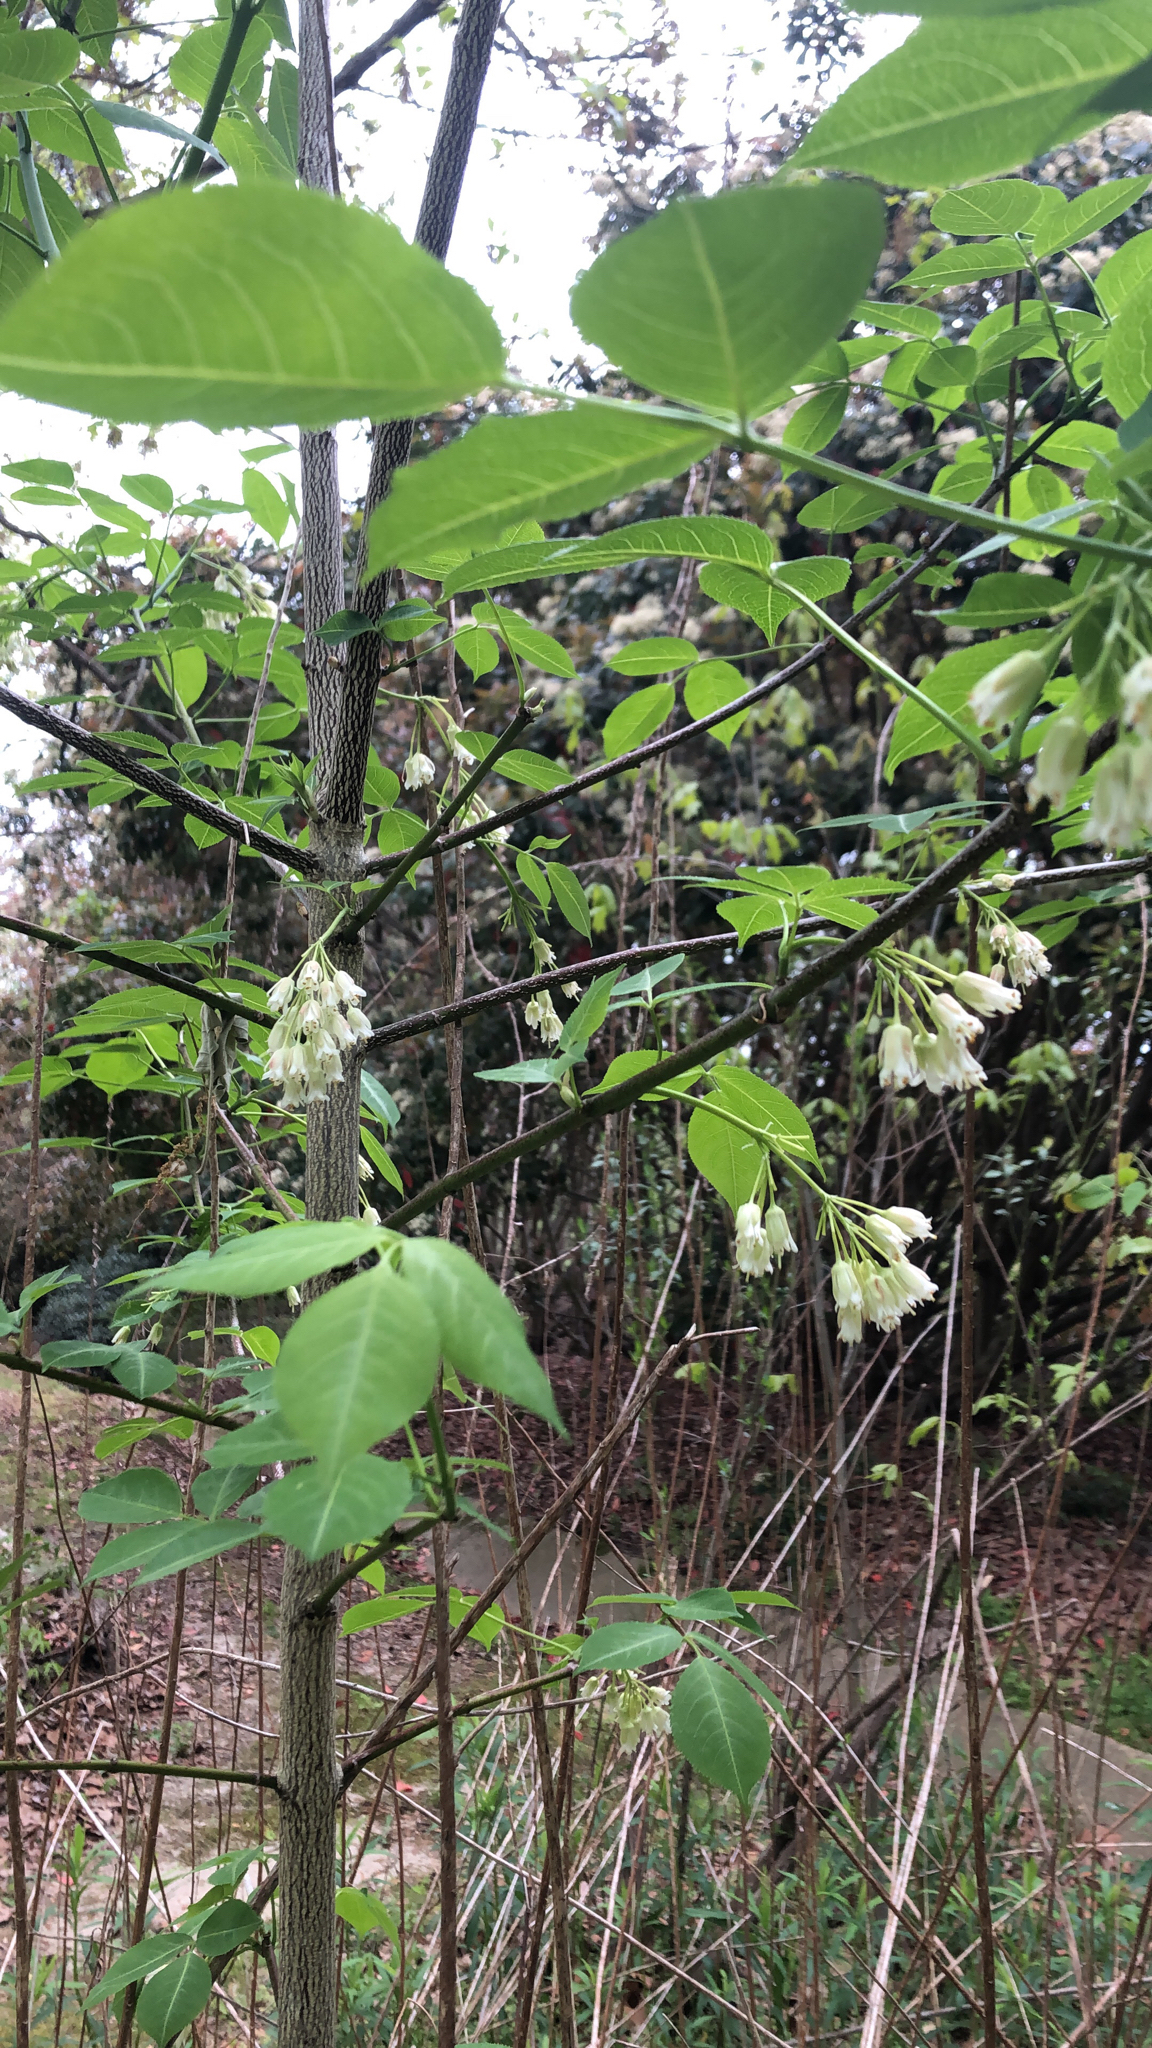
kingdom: Plantae
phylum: Tracheophyta
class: Magnoliopsida
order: Crossosomatales
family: Staphyleaceae
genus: Staphylea
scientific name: Staphylea trifolia
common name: American bladdernut
